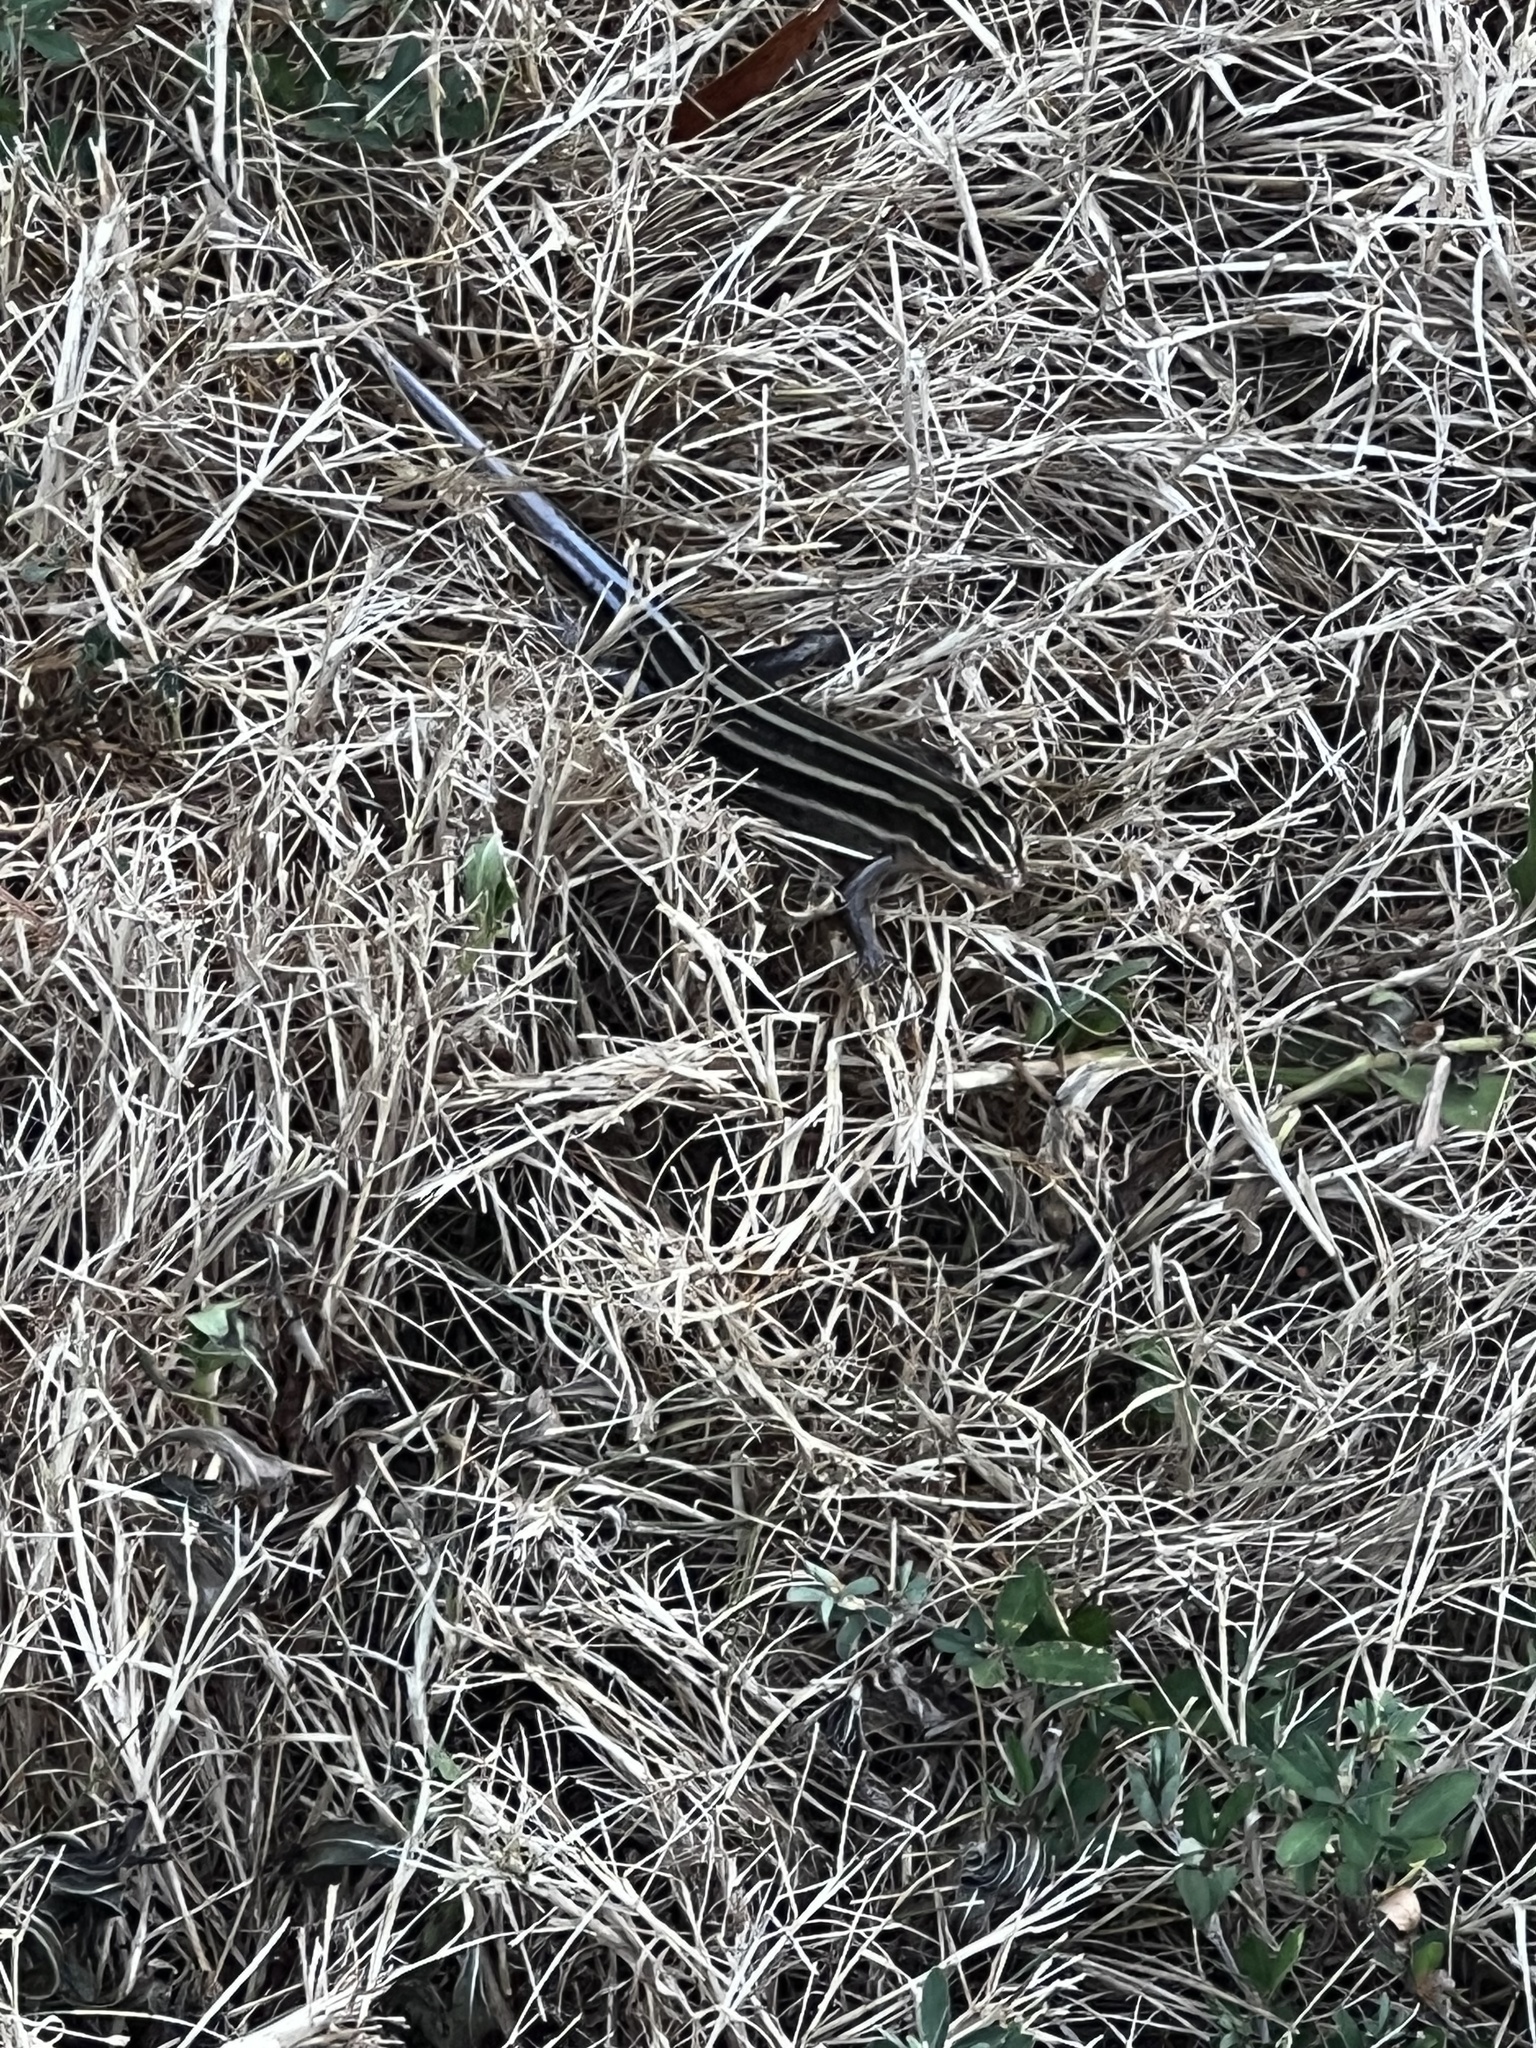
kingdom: Animalia
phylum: Chordata
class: Squamata
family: Scincidae
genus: Plestiodon
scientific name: Plestiodon fasciatus
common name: Five-lined skink
